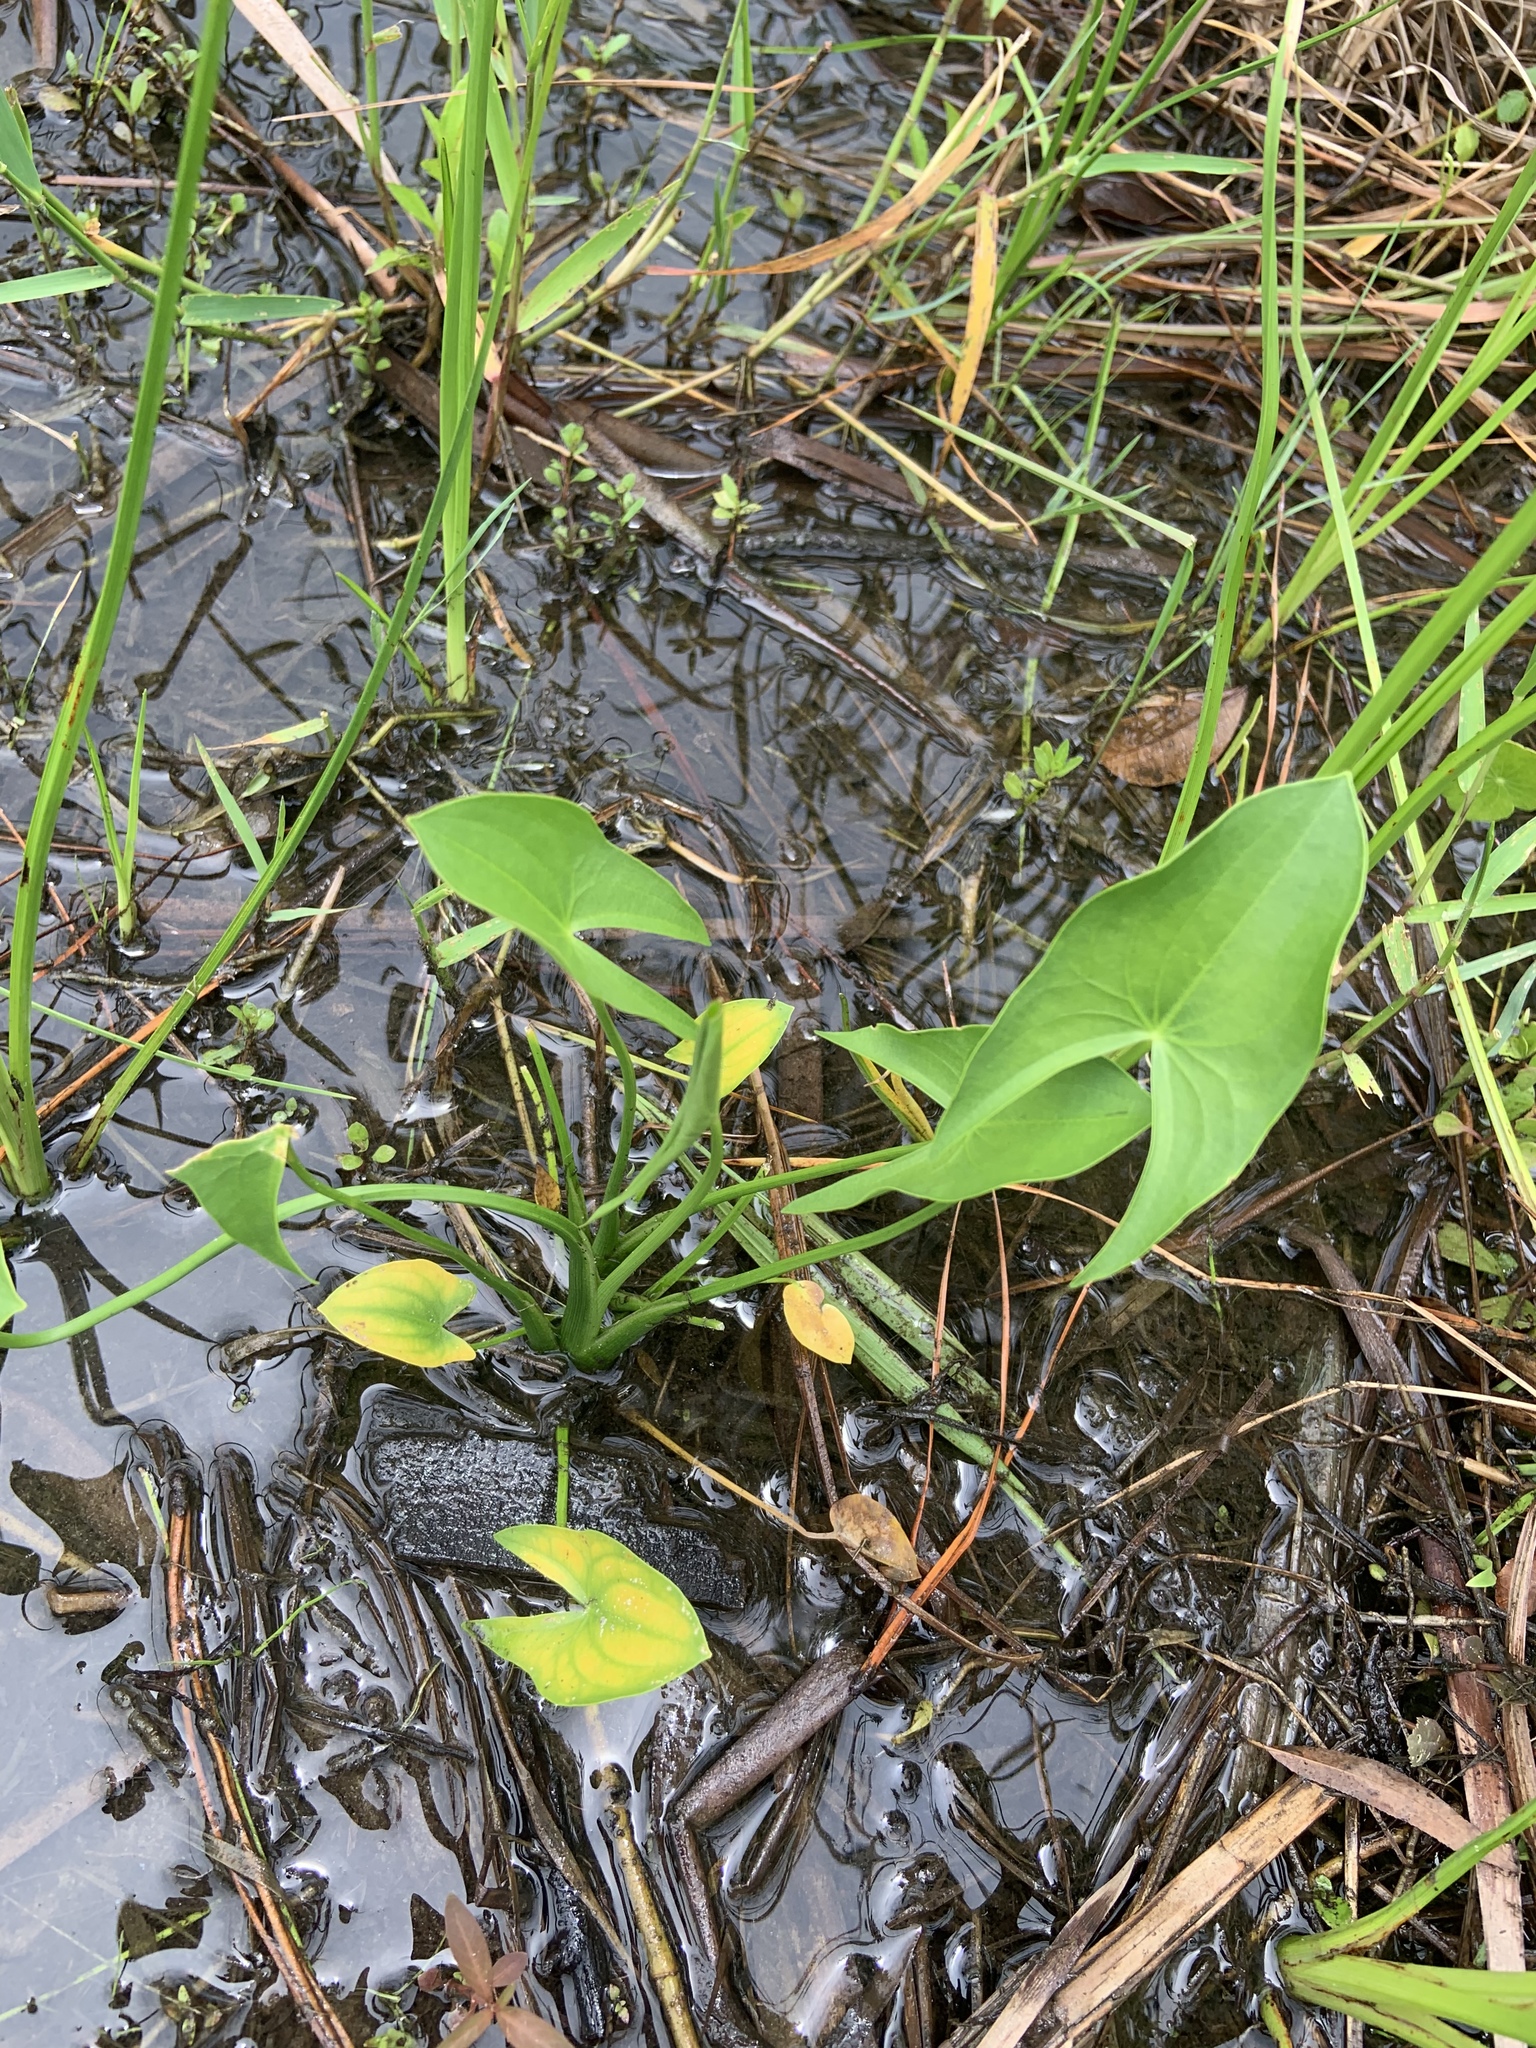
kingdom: Plantae
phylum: Tracheophyta
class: Liliopsida
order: Alismatales
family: Alismataceae
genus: Sagittaria
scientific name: Sagittaria latifolia
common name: Duck-potato
